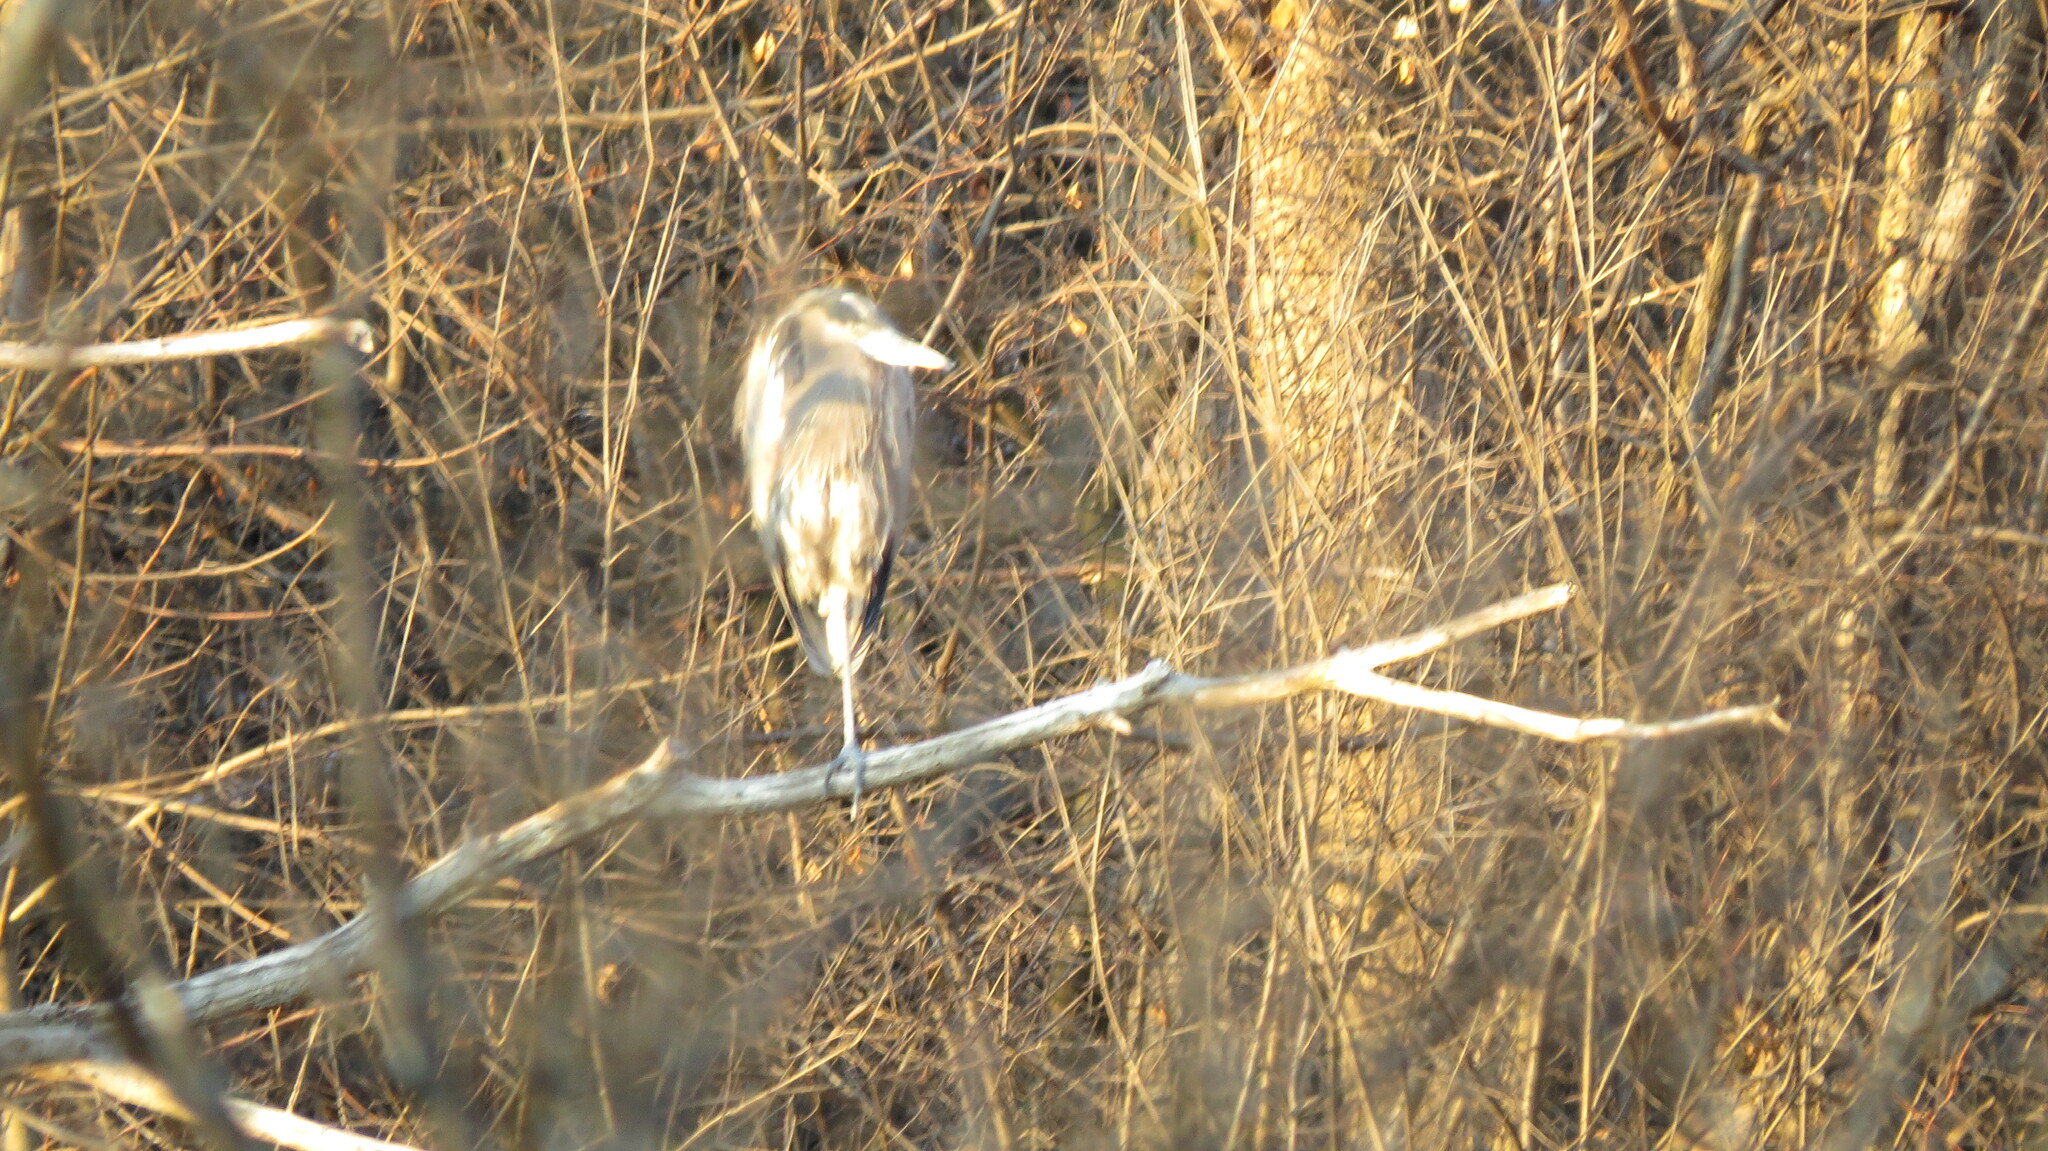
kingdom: Animalia
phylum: Chordata
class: Aves
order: Pelecaniformes
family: Ardeidae
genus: Ardea
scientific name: Ardea herodias
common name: Great blue heron
